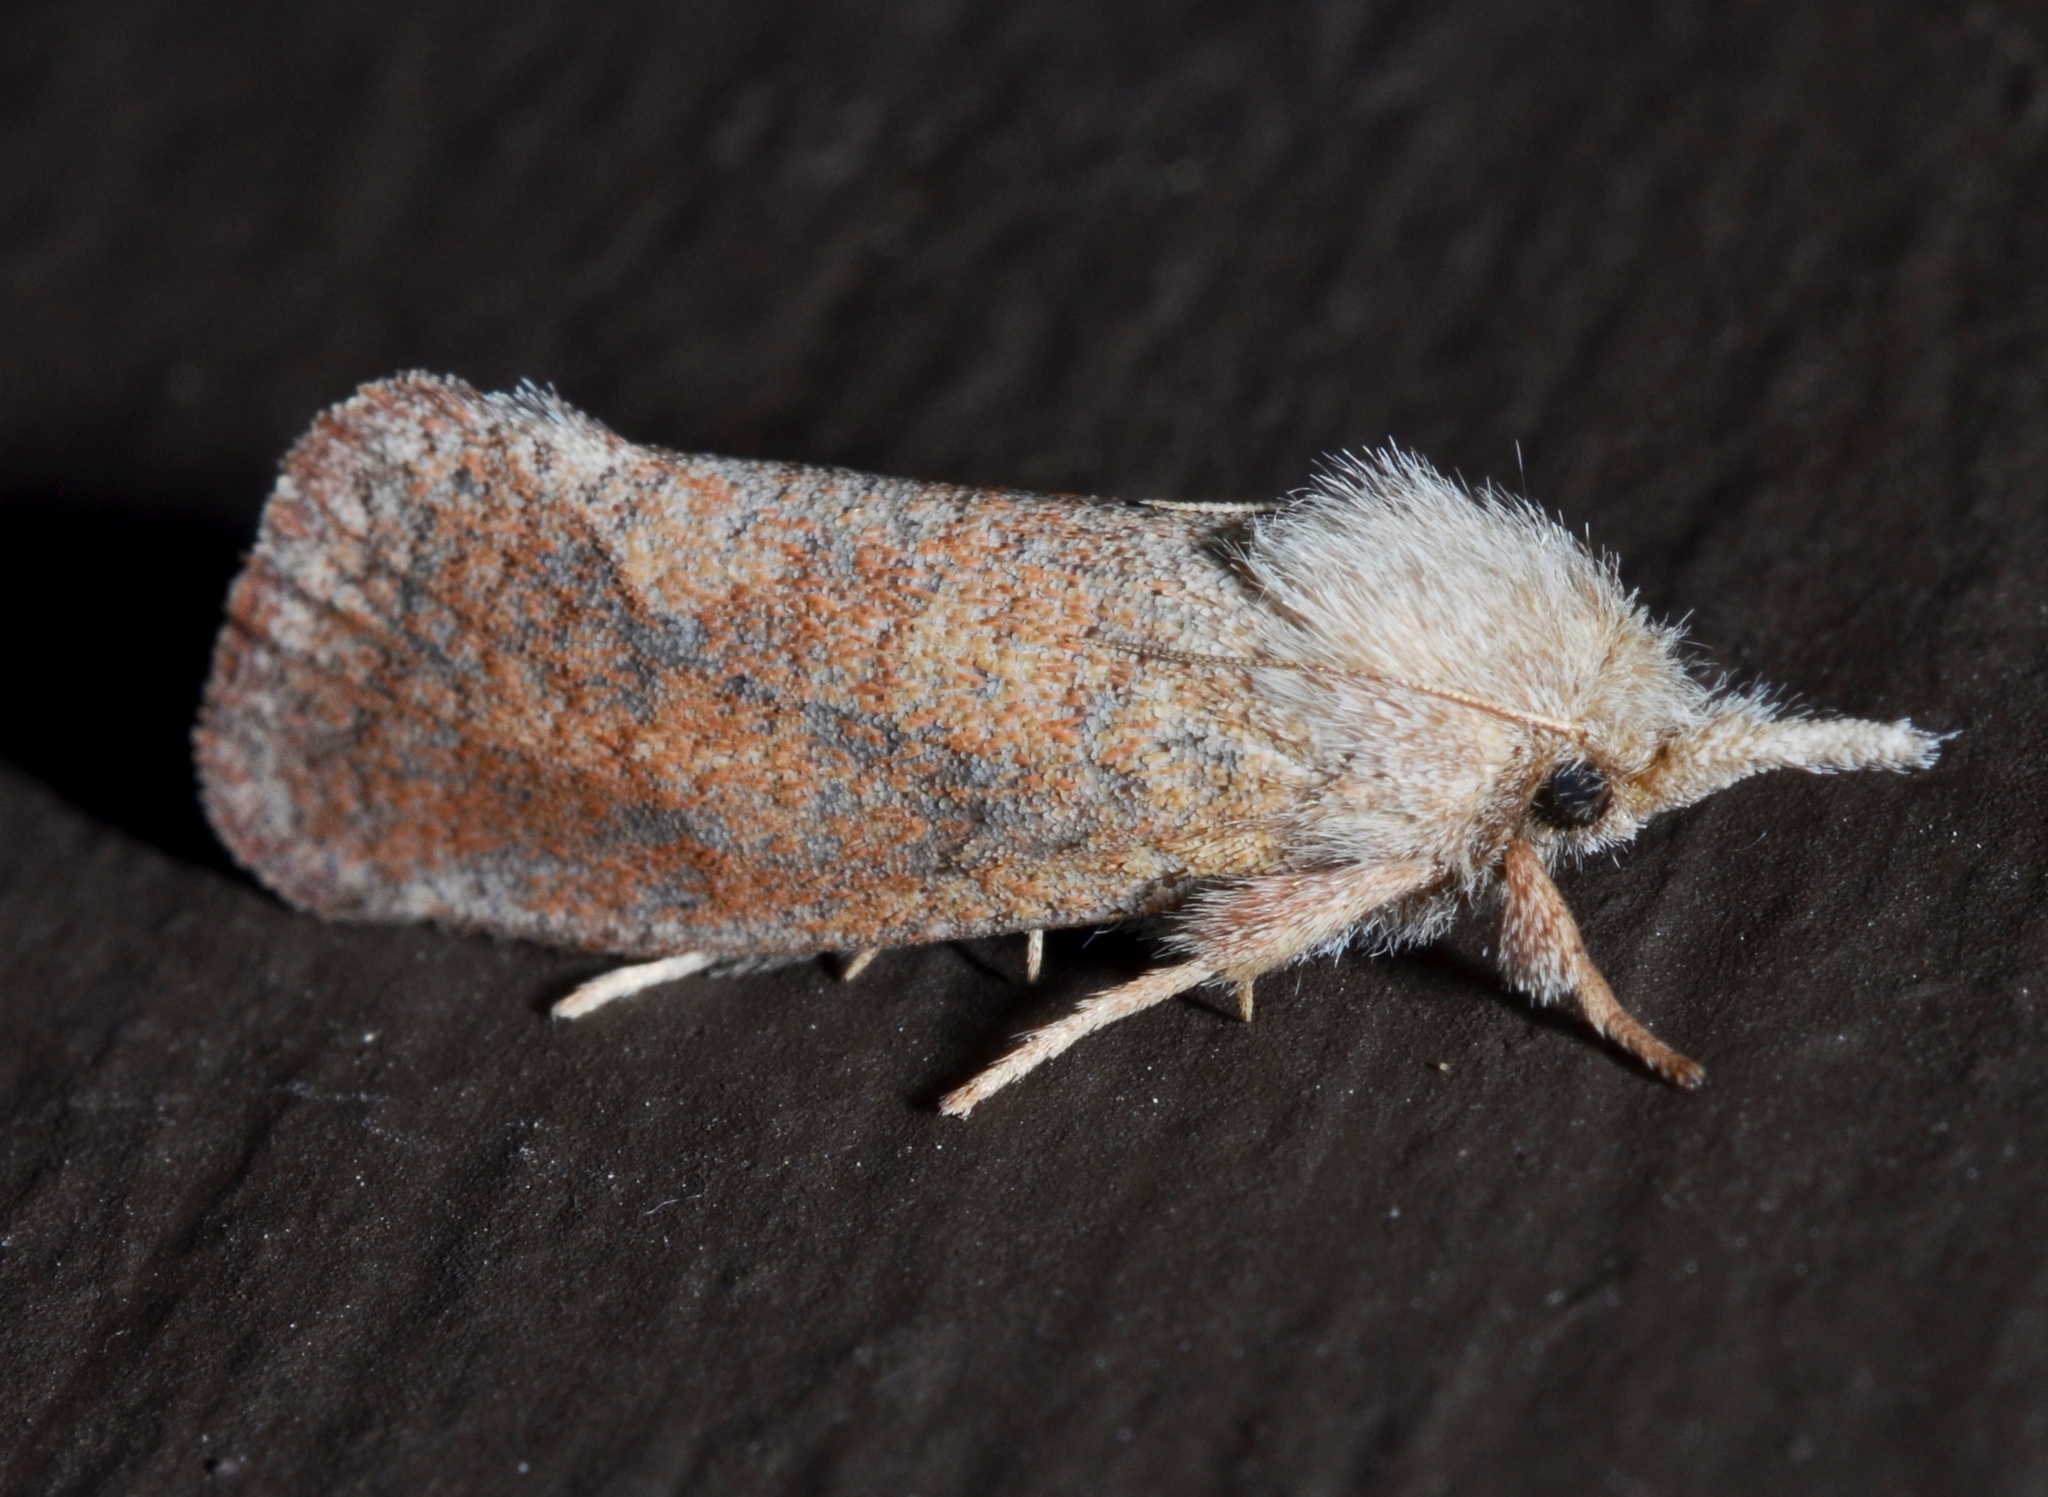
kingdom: Animalia
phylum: Arthropoda
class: Insecta
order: Lepidoptera
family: Tineidae
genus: Acrolophus
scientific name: Acrolophus plumifrontella
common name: Eastern grass tubeworm moth
